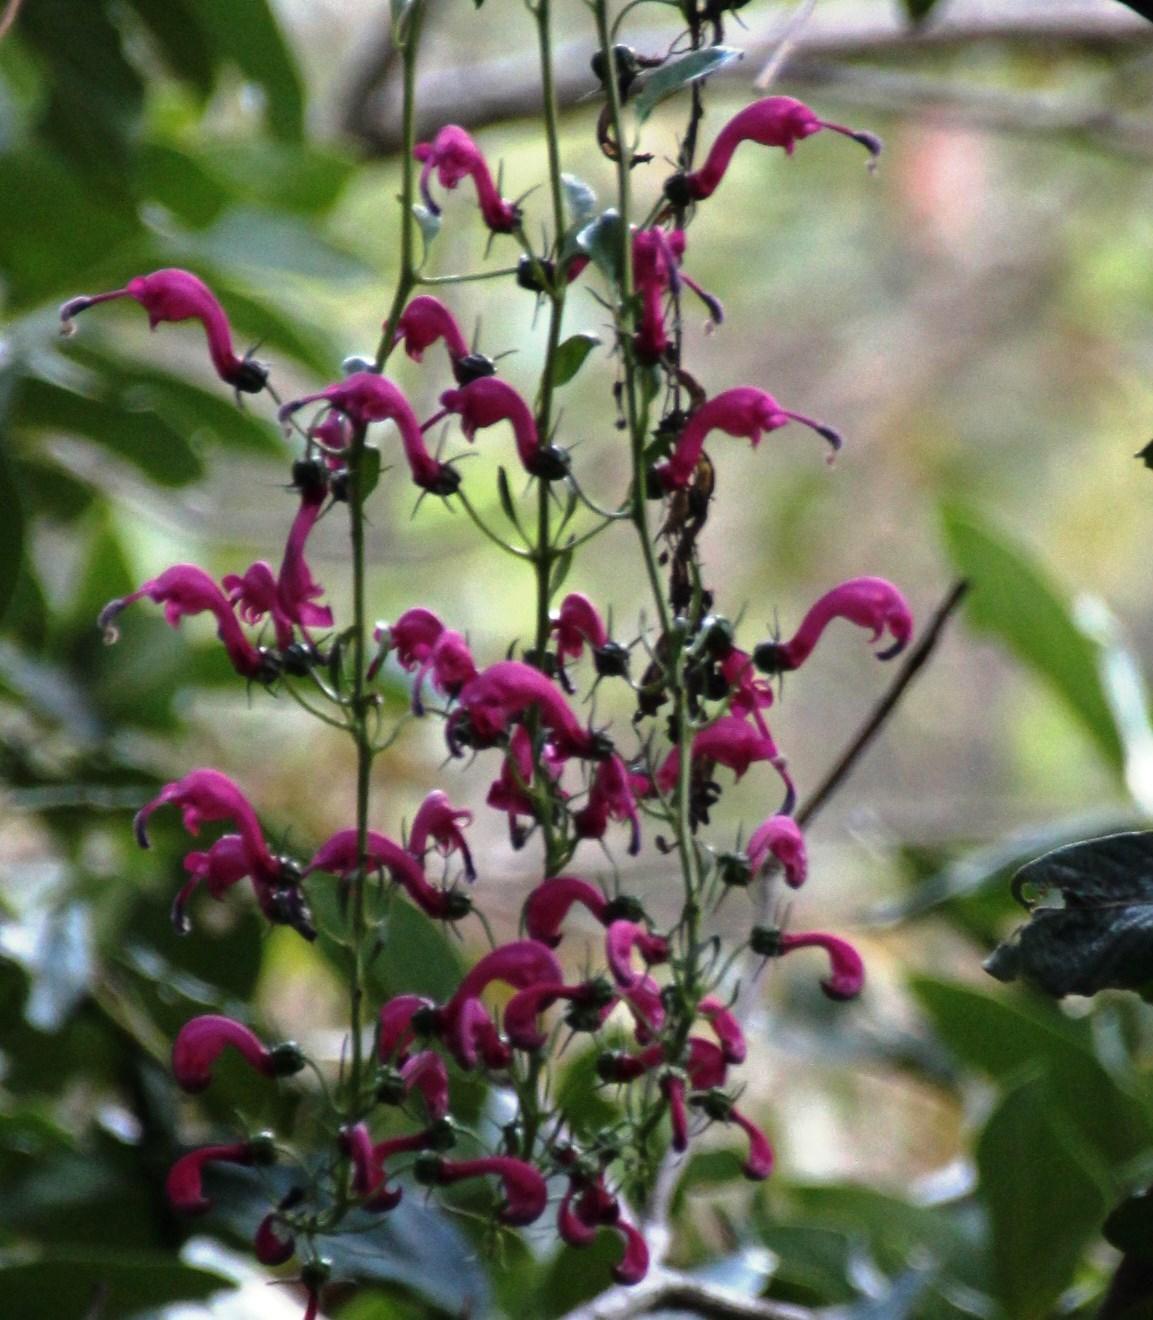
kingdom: Plantae
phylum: Tracheophyta
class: Magnoliopsida
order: Asterales
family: Campanulaceae
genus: Centropogon
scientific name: Centropogon urubambae
